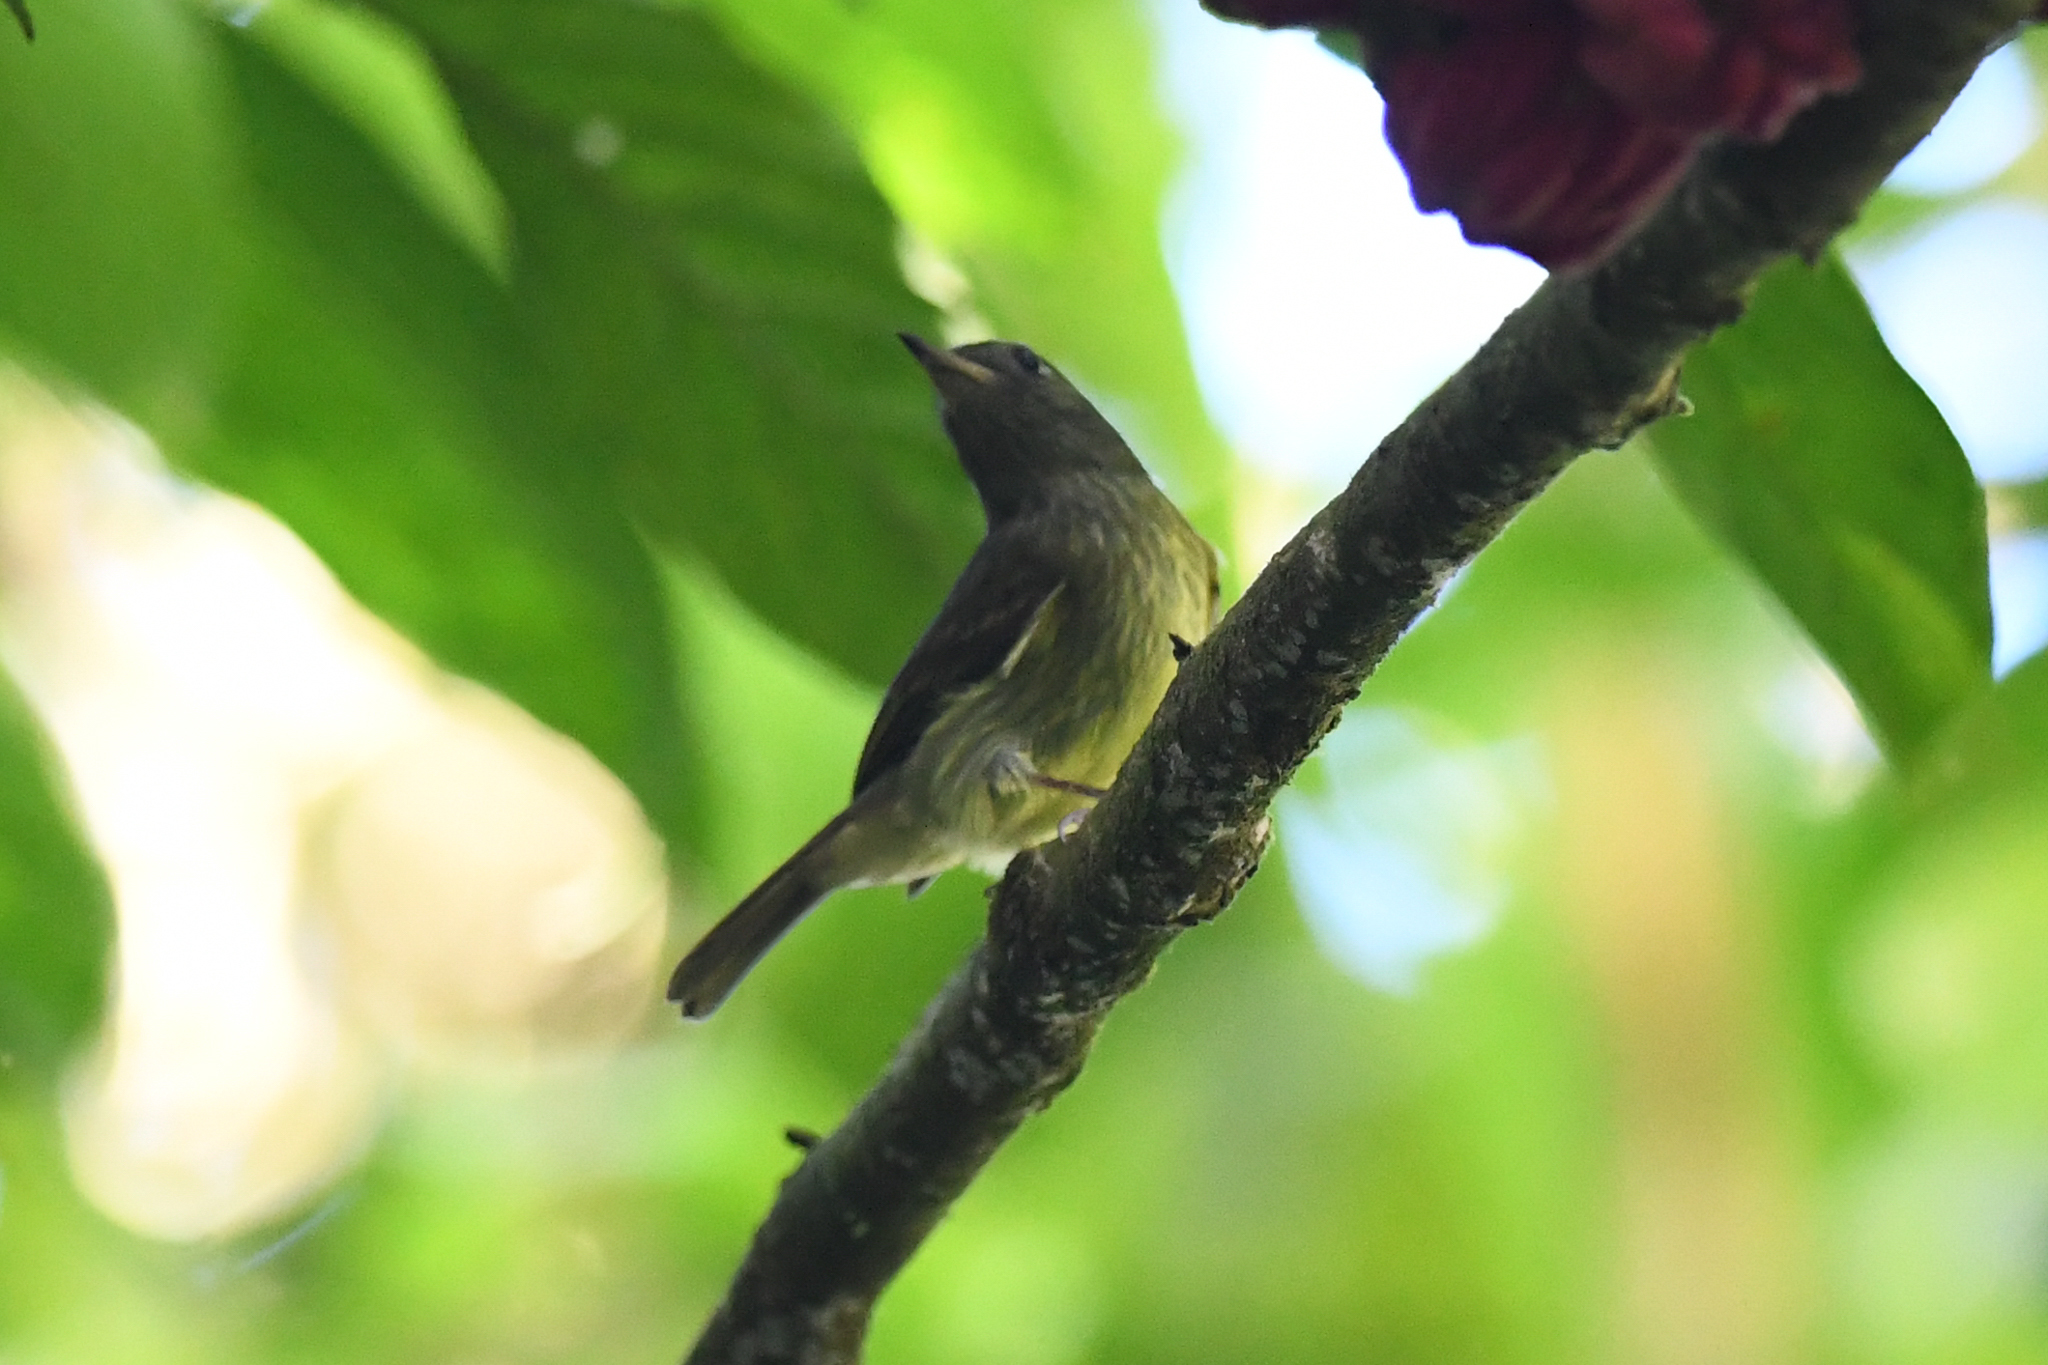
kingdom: Animalia
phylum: Chordata
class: Aves
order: Passeriformes
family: Tyrannidae
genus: Mionectes
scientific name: Mionectes olivaceus
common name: Olive-striped flycatcher
